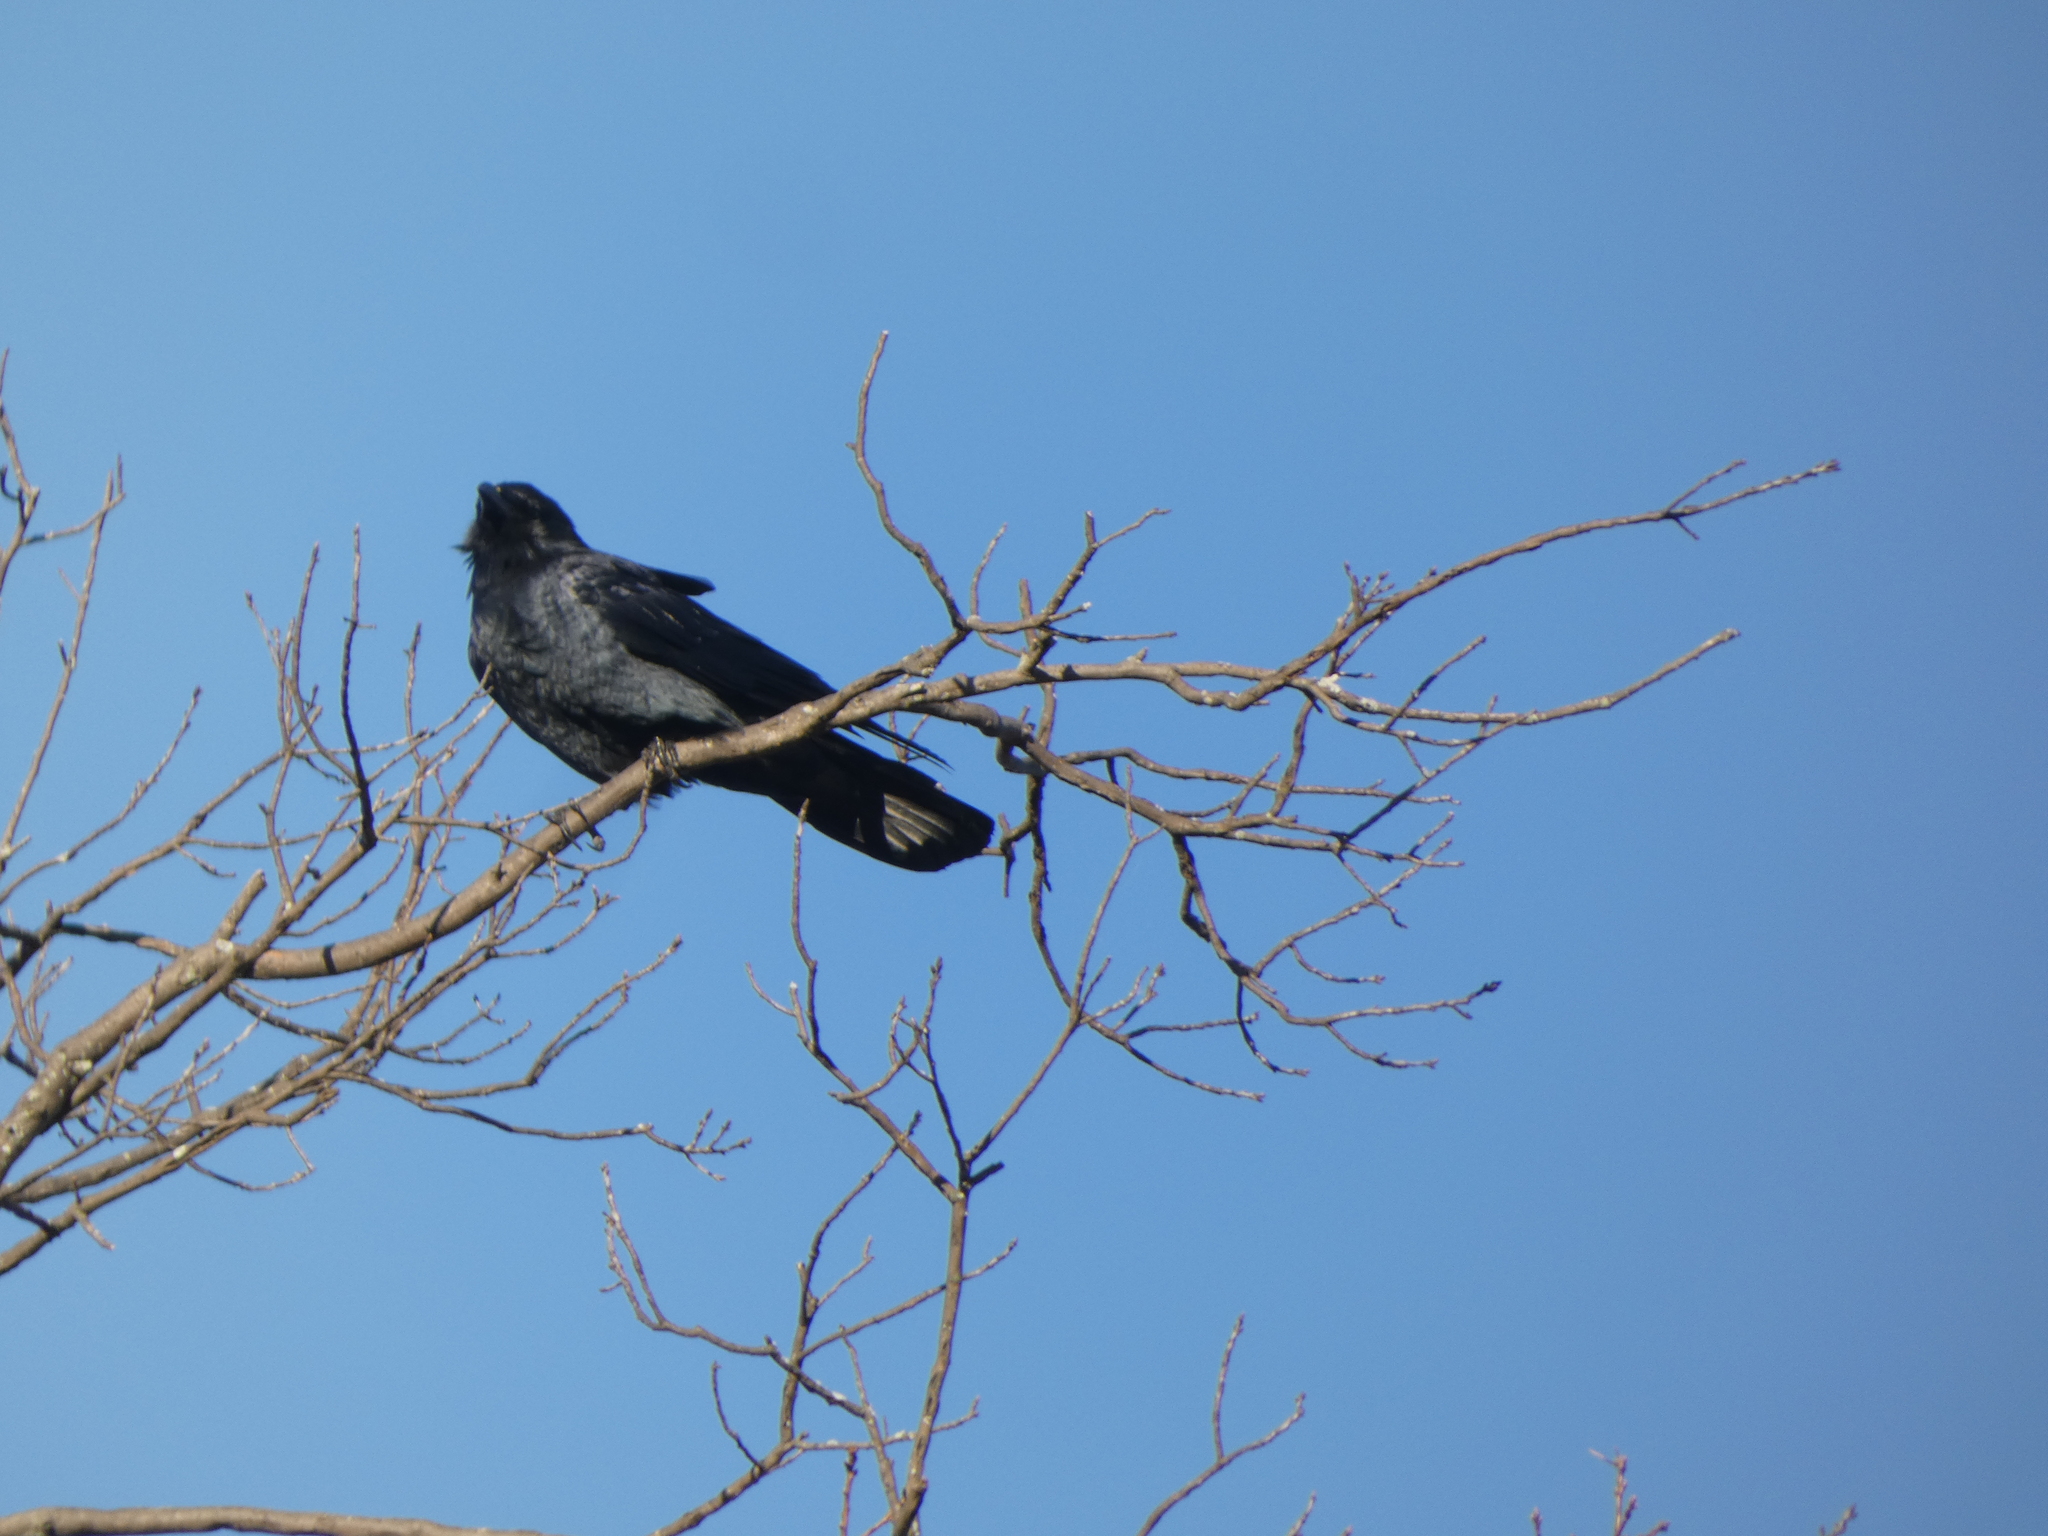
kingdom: Animalia
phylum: Chordata
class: Aves
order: Passeriformes
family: Corvidae
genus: Corvus
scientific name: Corvus ossifragus
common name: Fish crow
